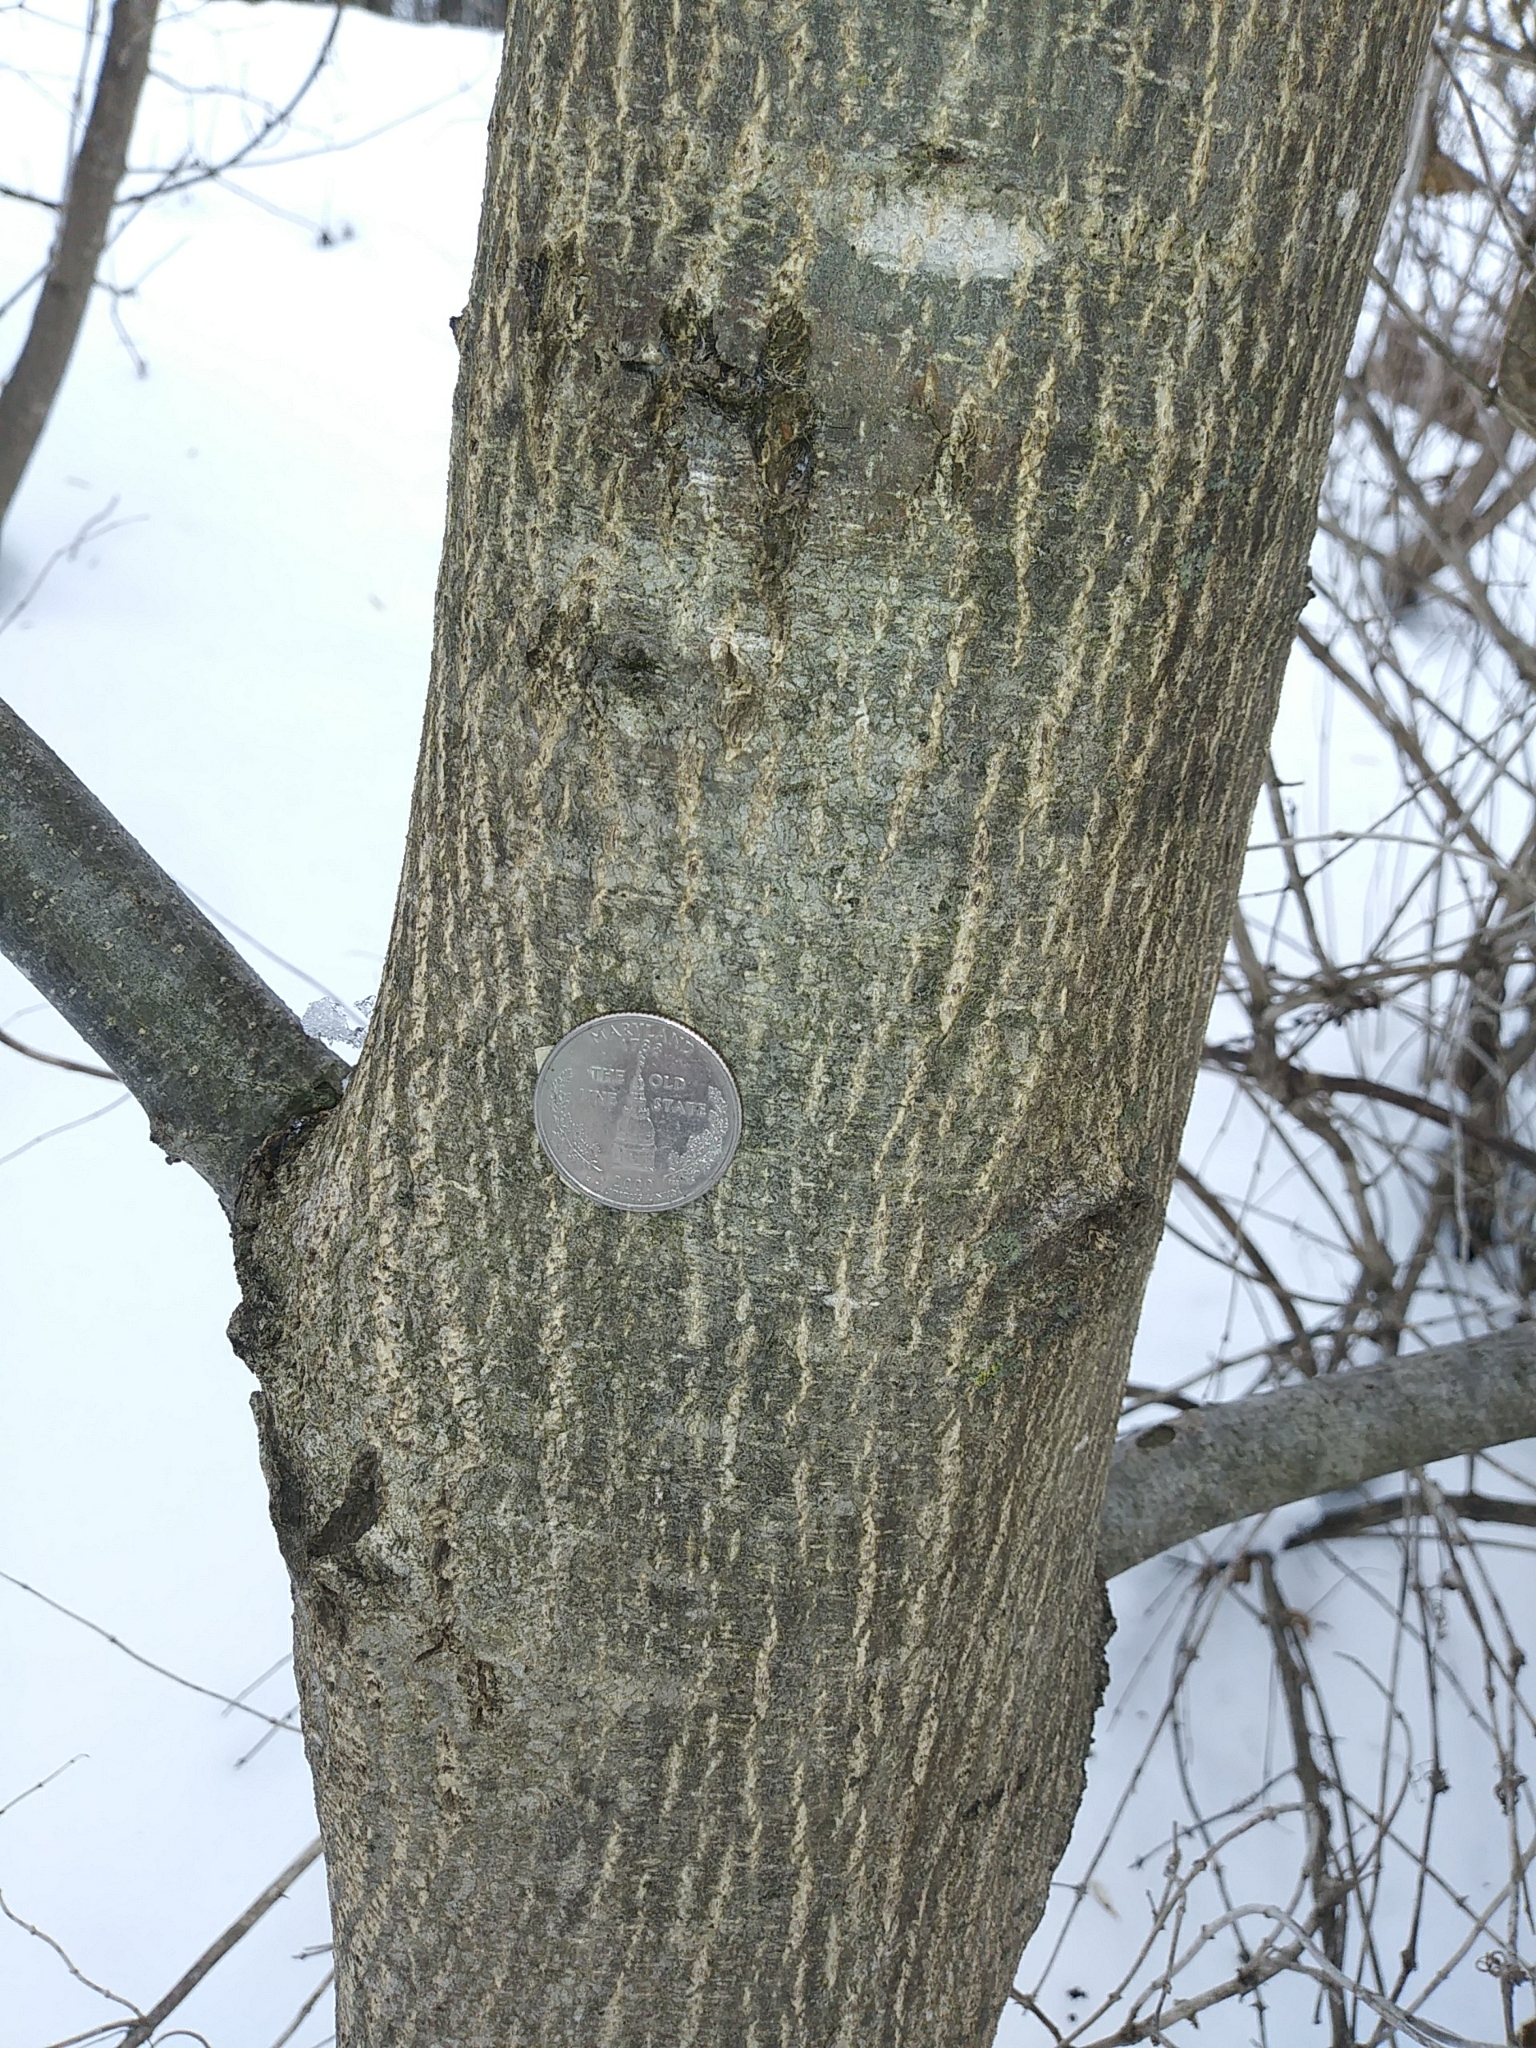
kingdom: Plantae
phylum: Tracheophyta
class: Magnoliopsida
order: Fagales
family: Juglandaceae
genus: Juglans
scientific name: Juglans cinerea
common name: Butternut
